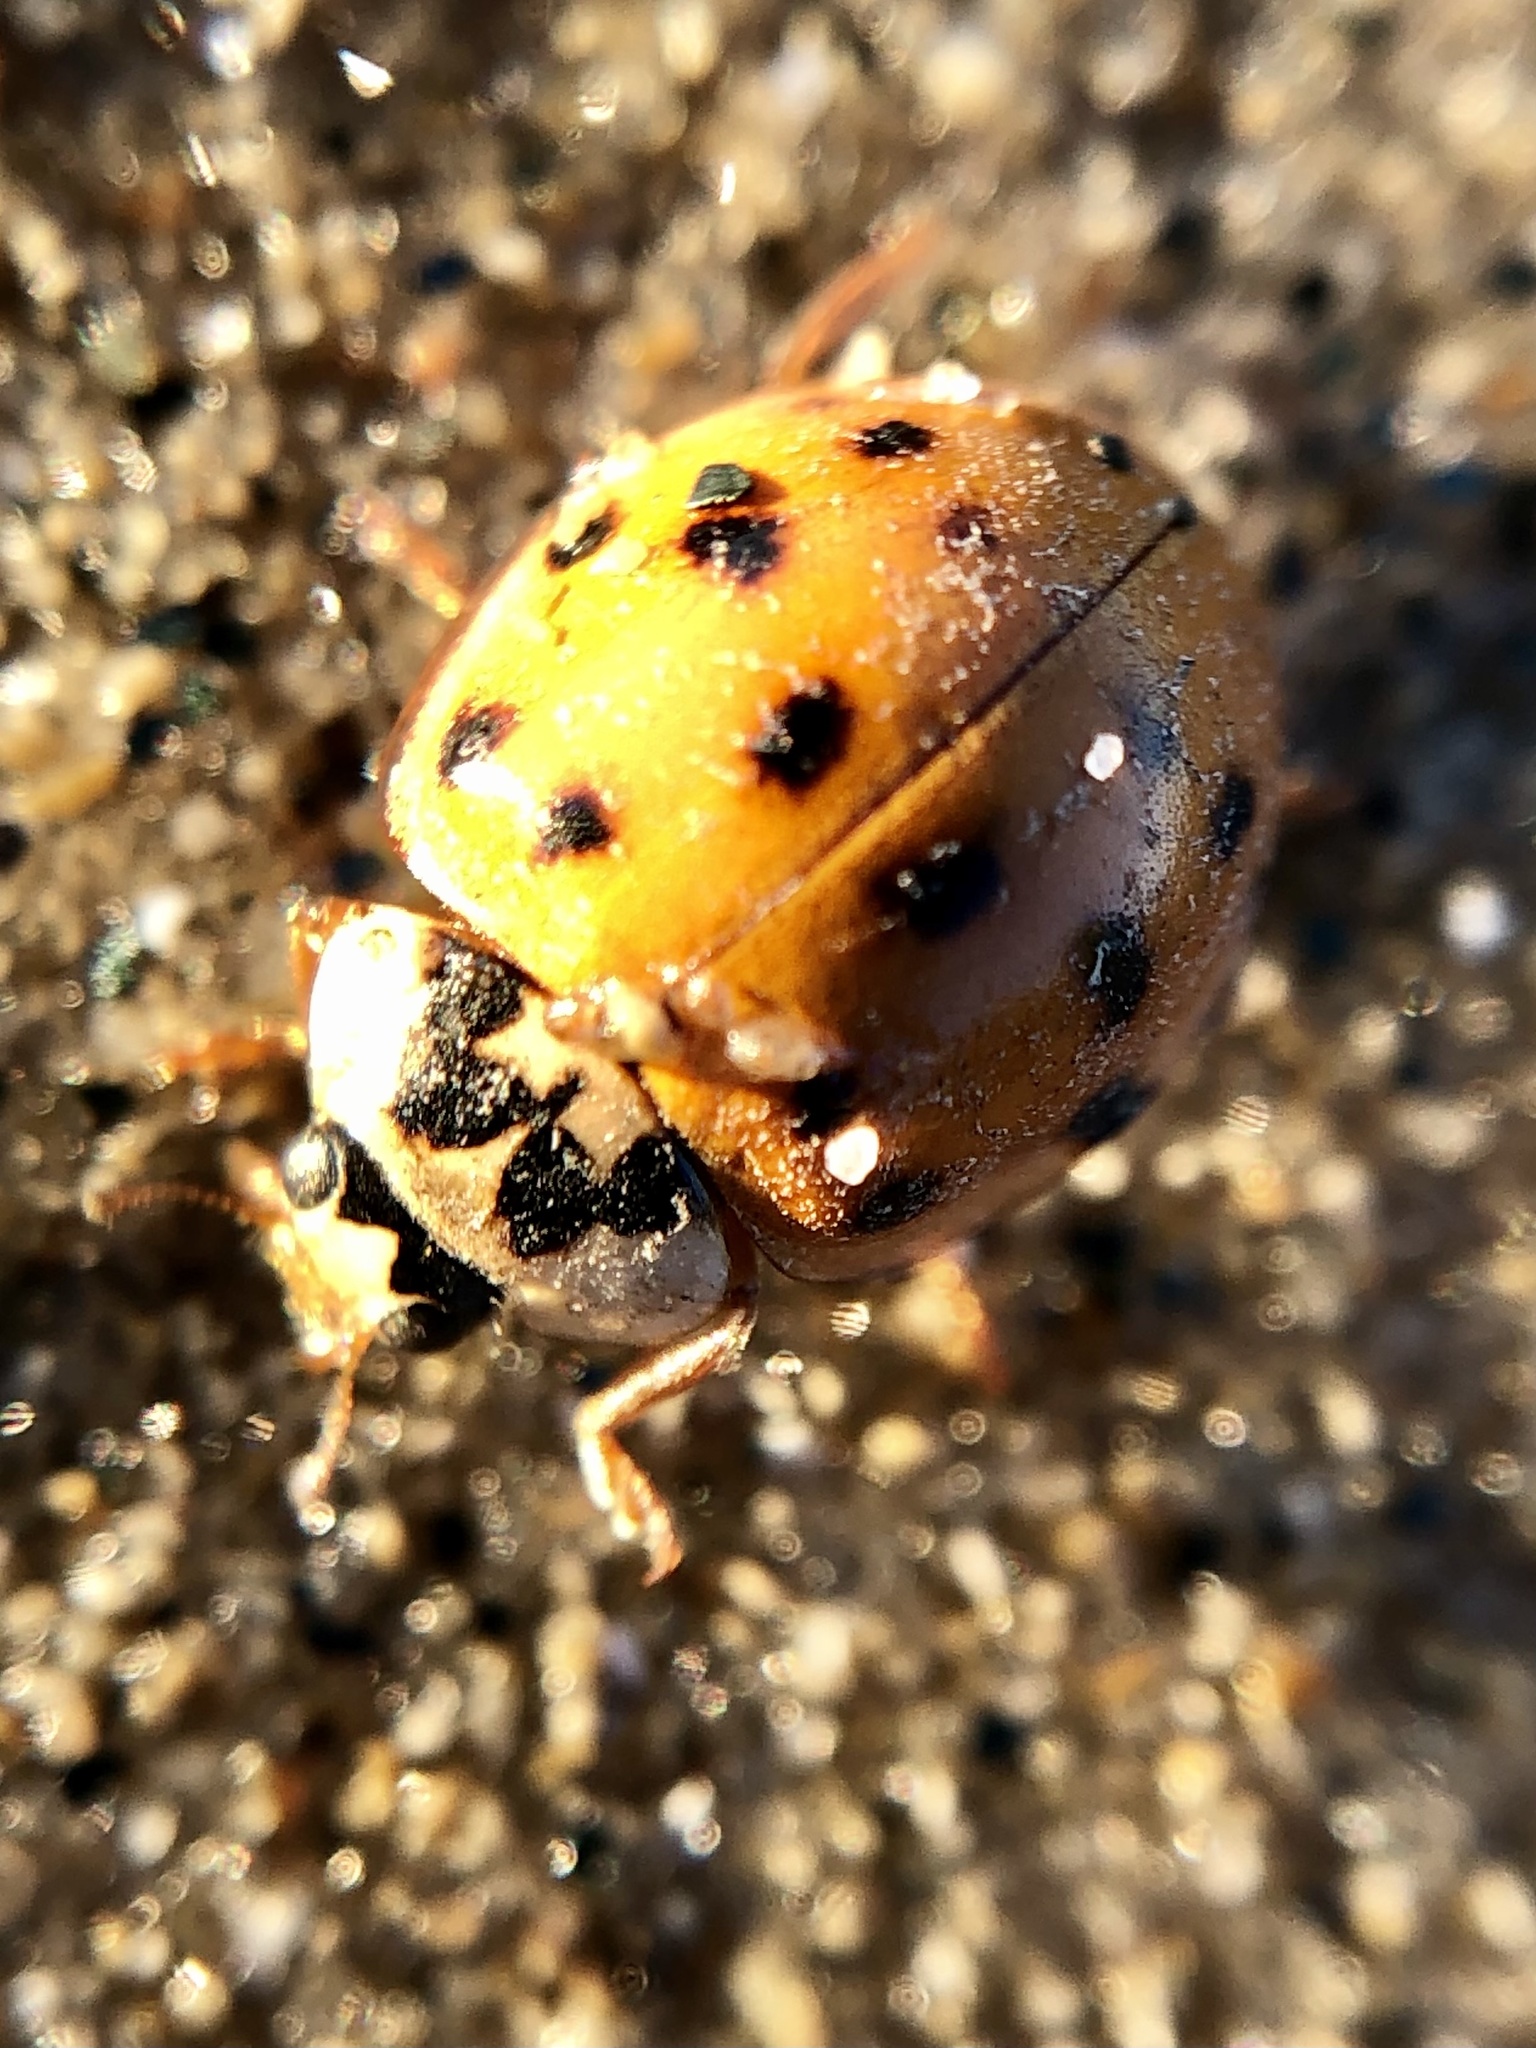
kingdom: Animalia
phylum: Arthropoda
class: Insecta
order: Coleoptera
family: Coccinellidae
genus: Harmonia
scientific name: Harmonia axyridis
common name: Harlequin ladybird
